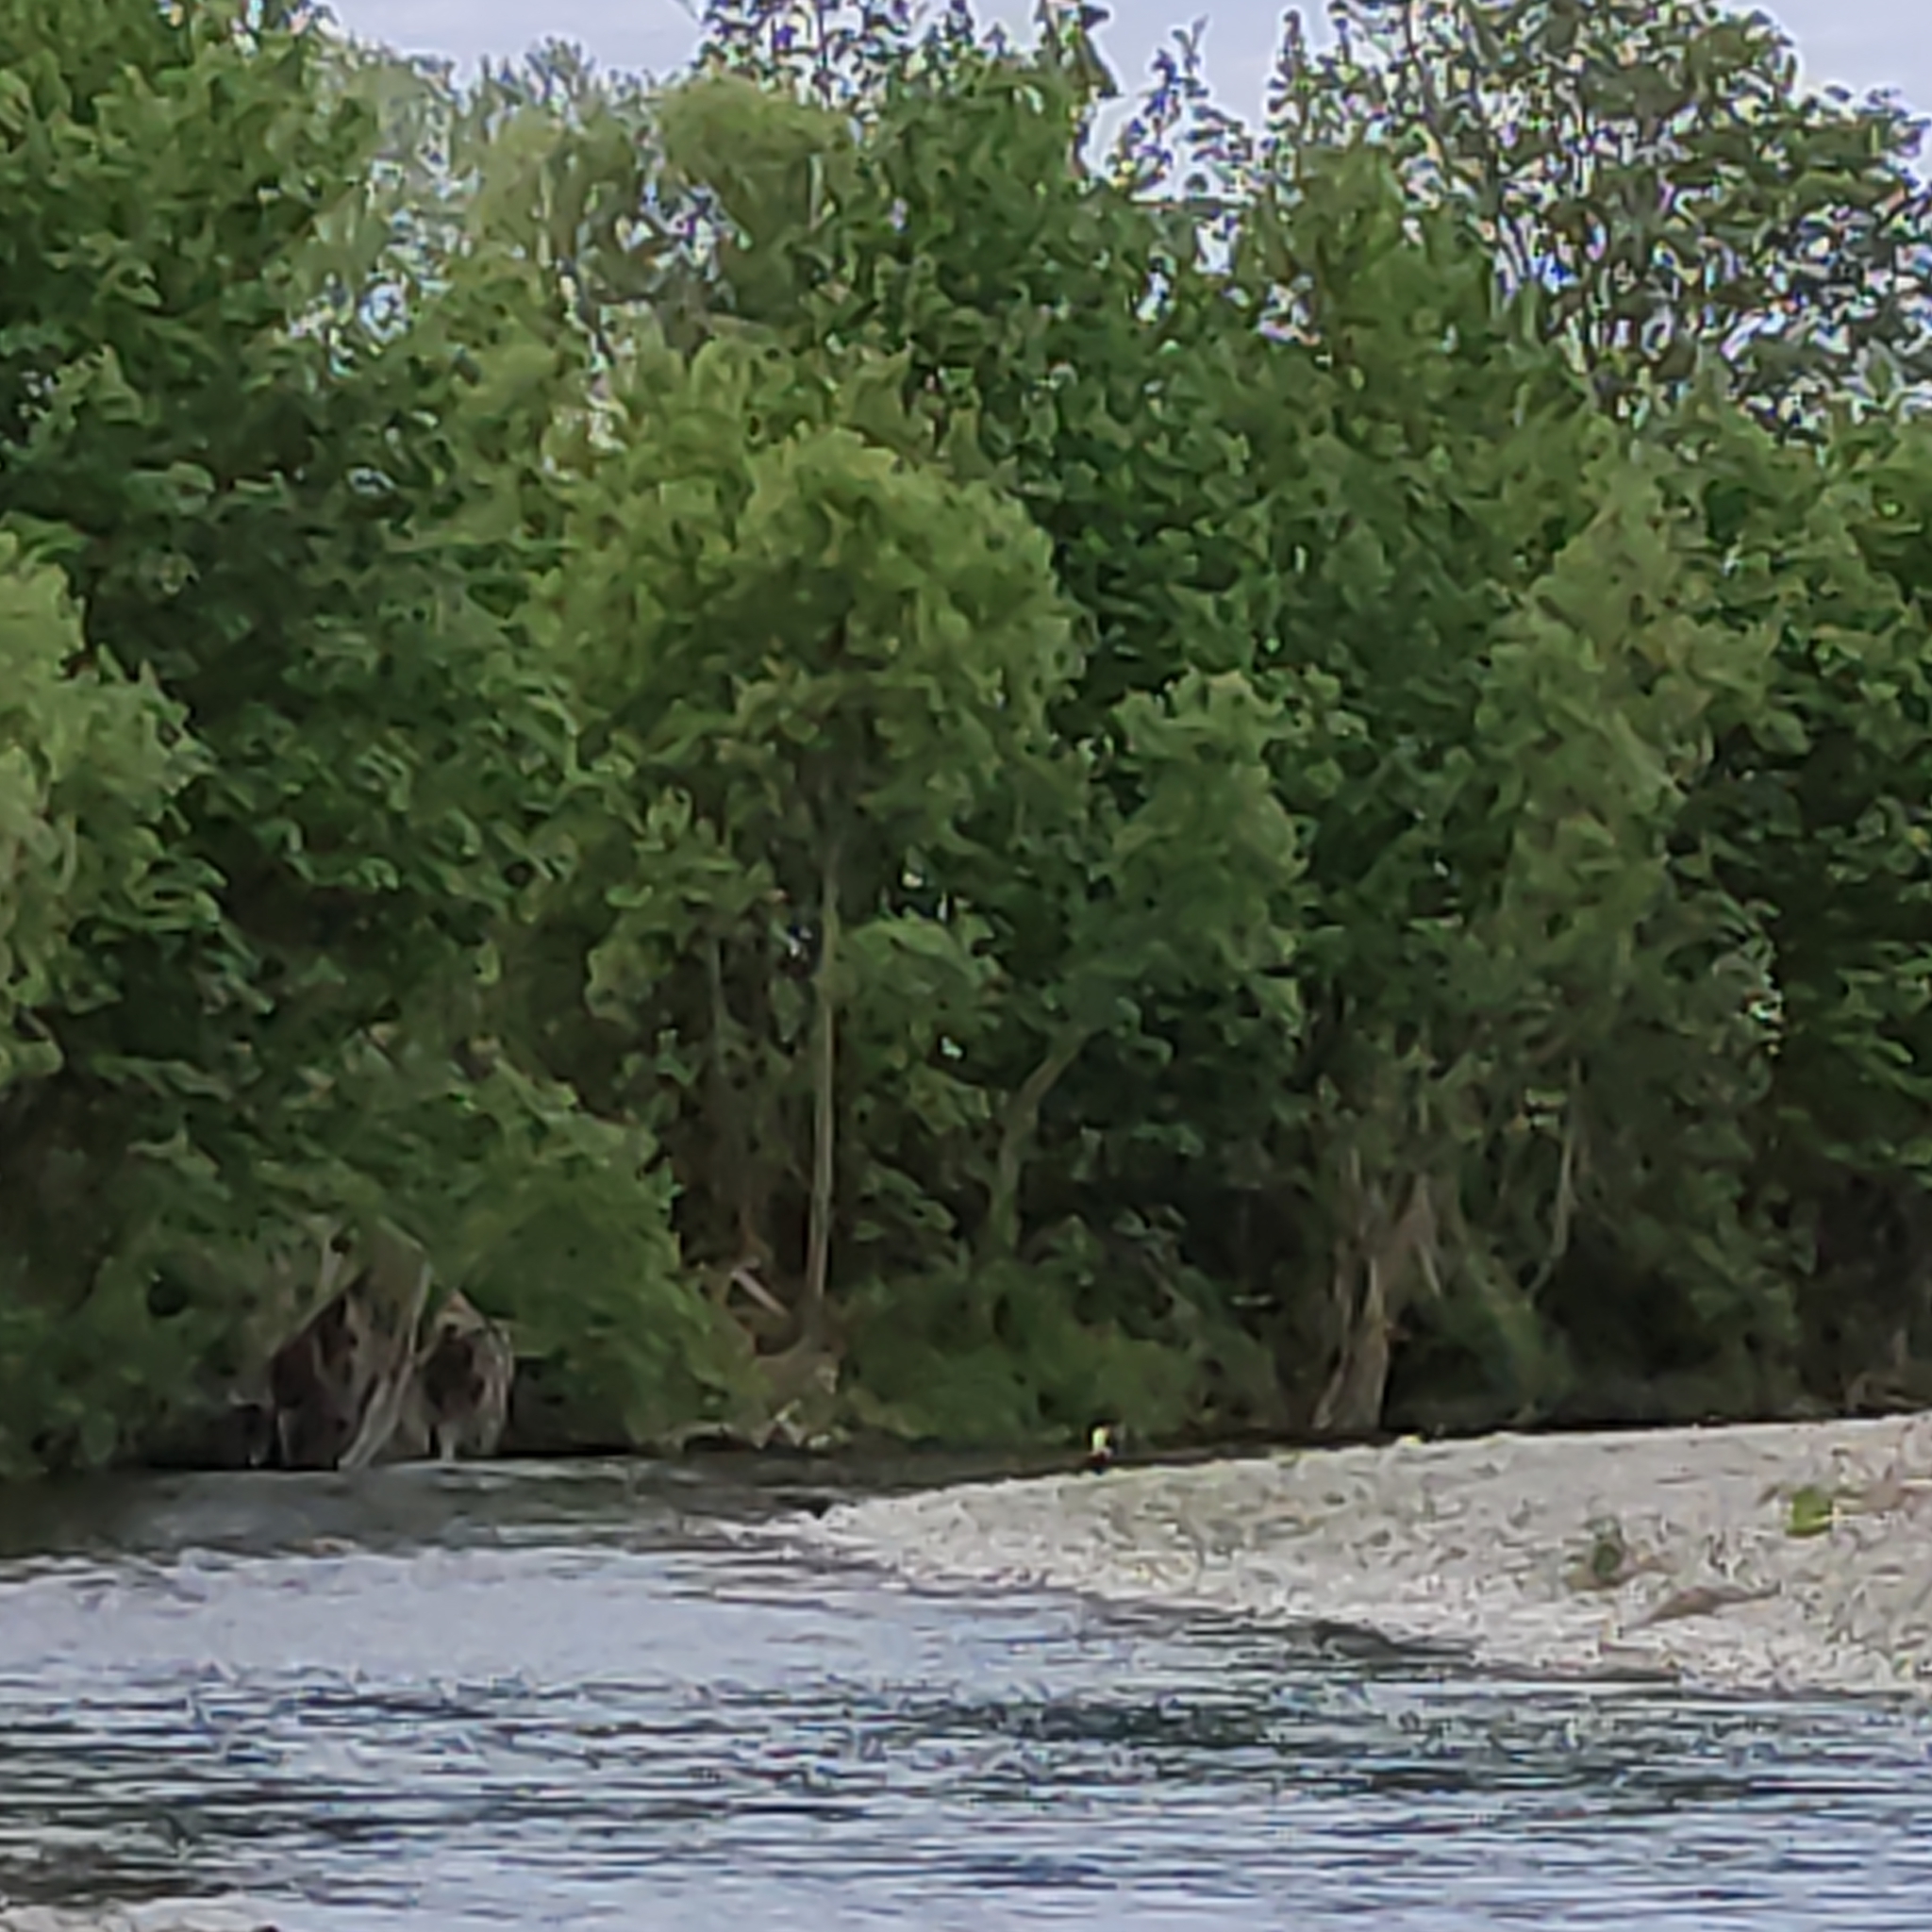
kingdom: Animalia
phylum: Chordata
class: Aves
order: Anseriformes
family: Anatidae
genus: Tadorna
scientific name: Tadorna variegata
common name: Paradise shelduck
